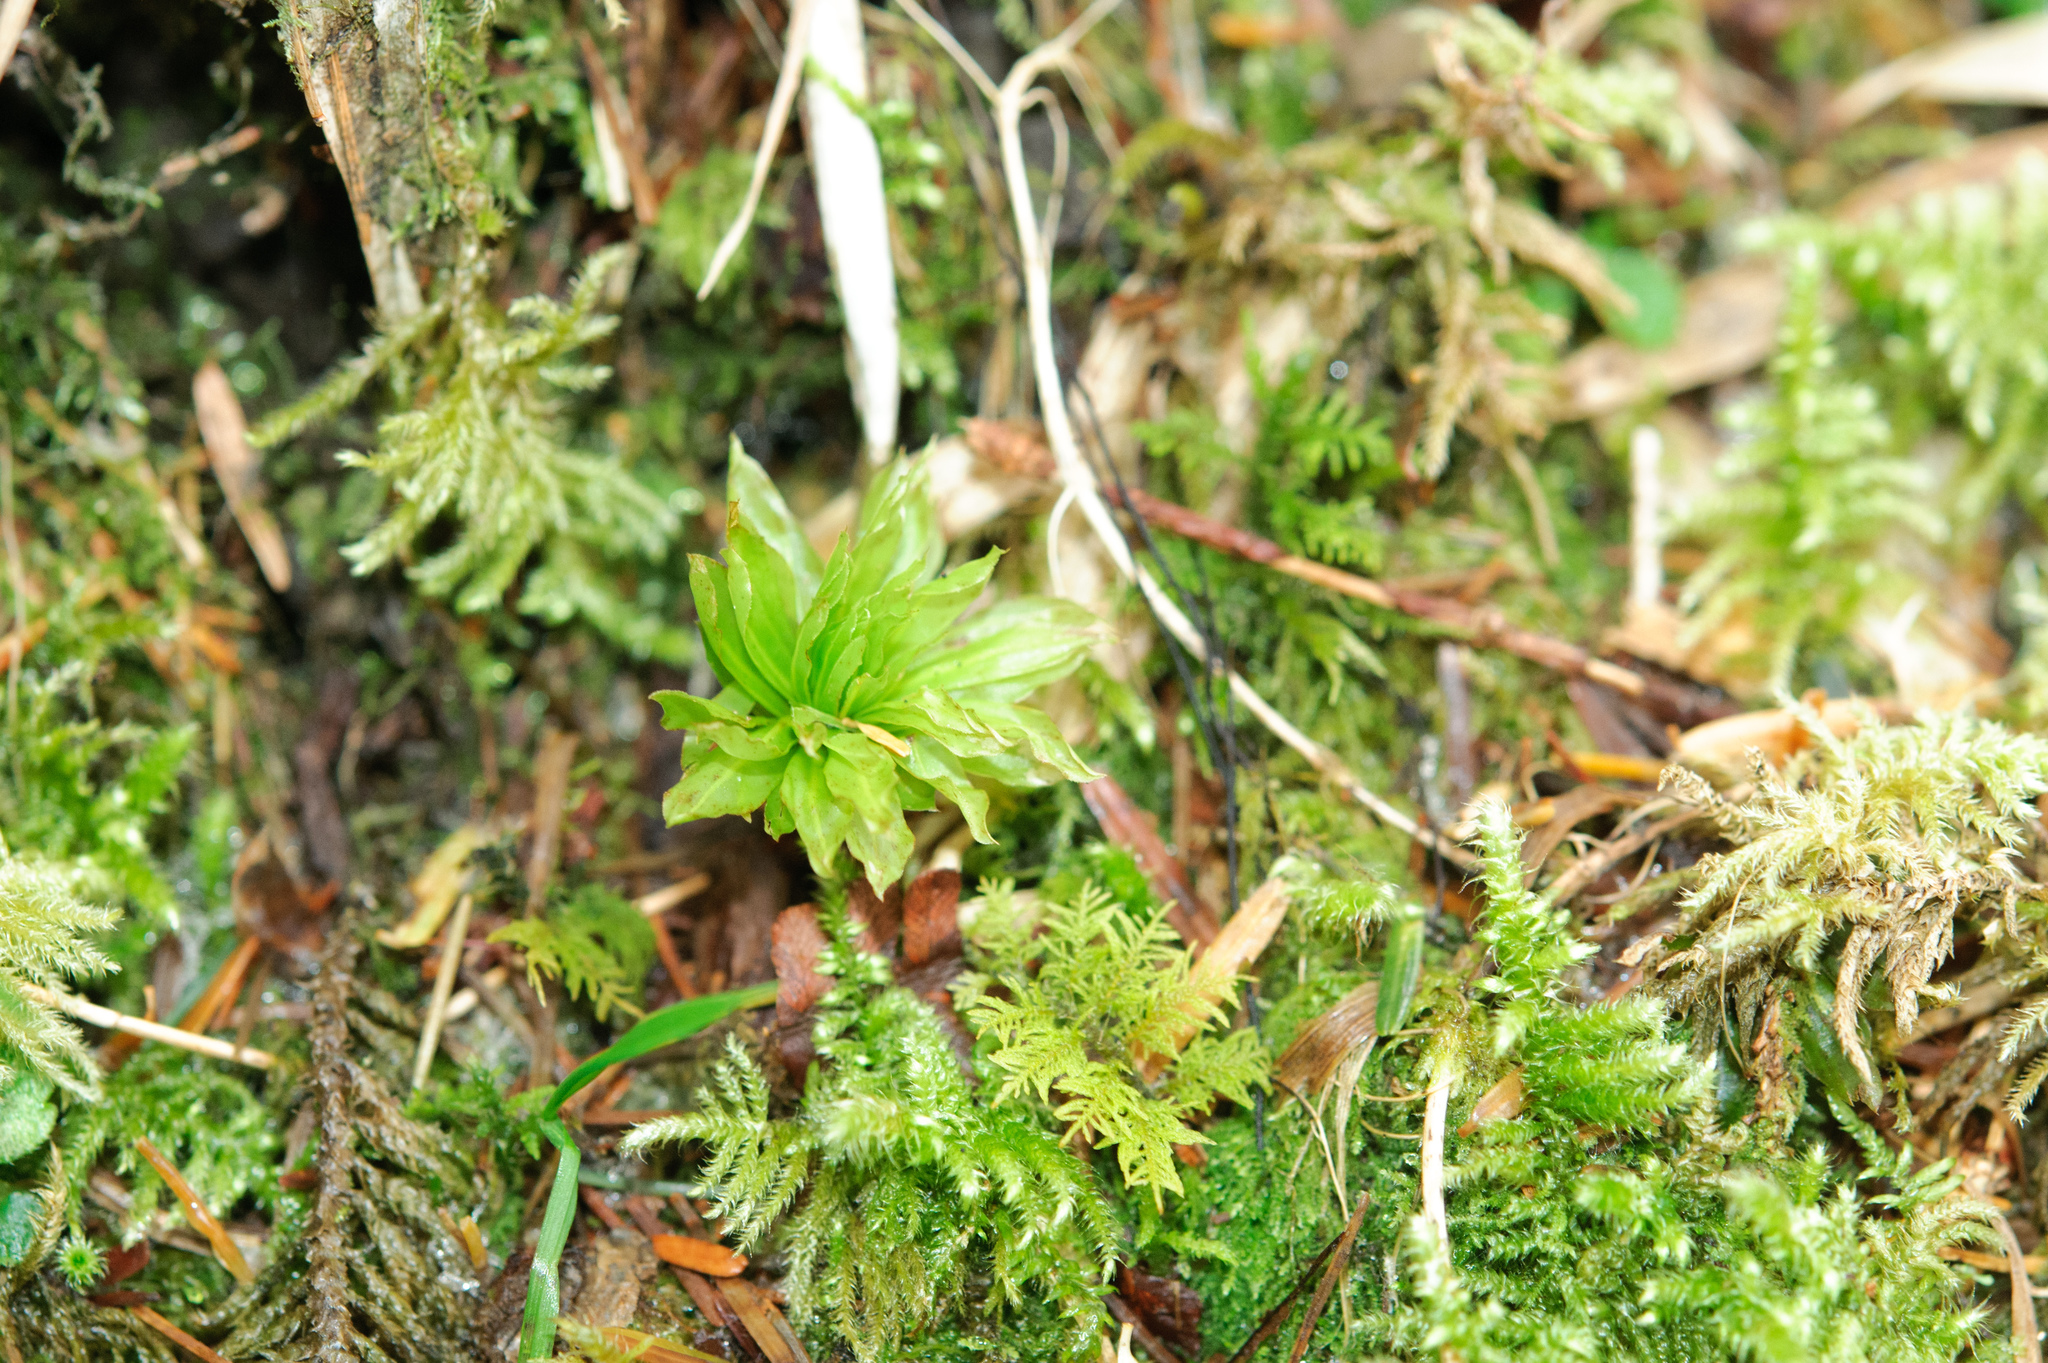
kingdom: Plantae
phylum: Bryophyta
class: Bryopsida
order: Bryales
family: Bryaceae
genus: Rhodobryum
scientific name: Rhodobryum giganteum
